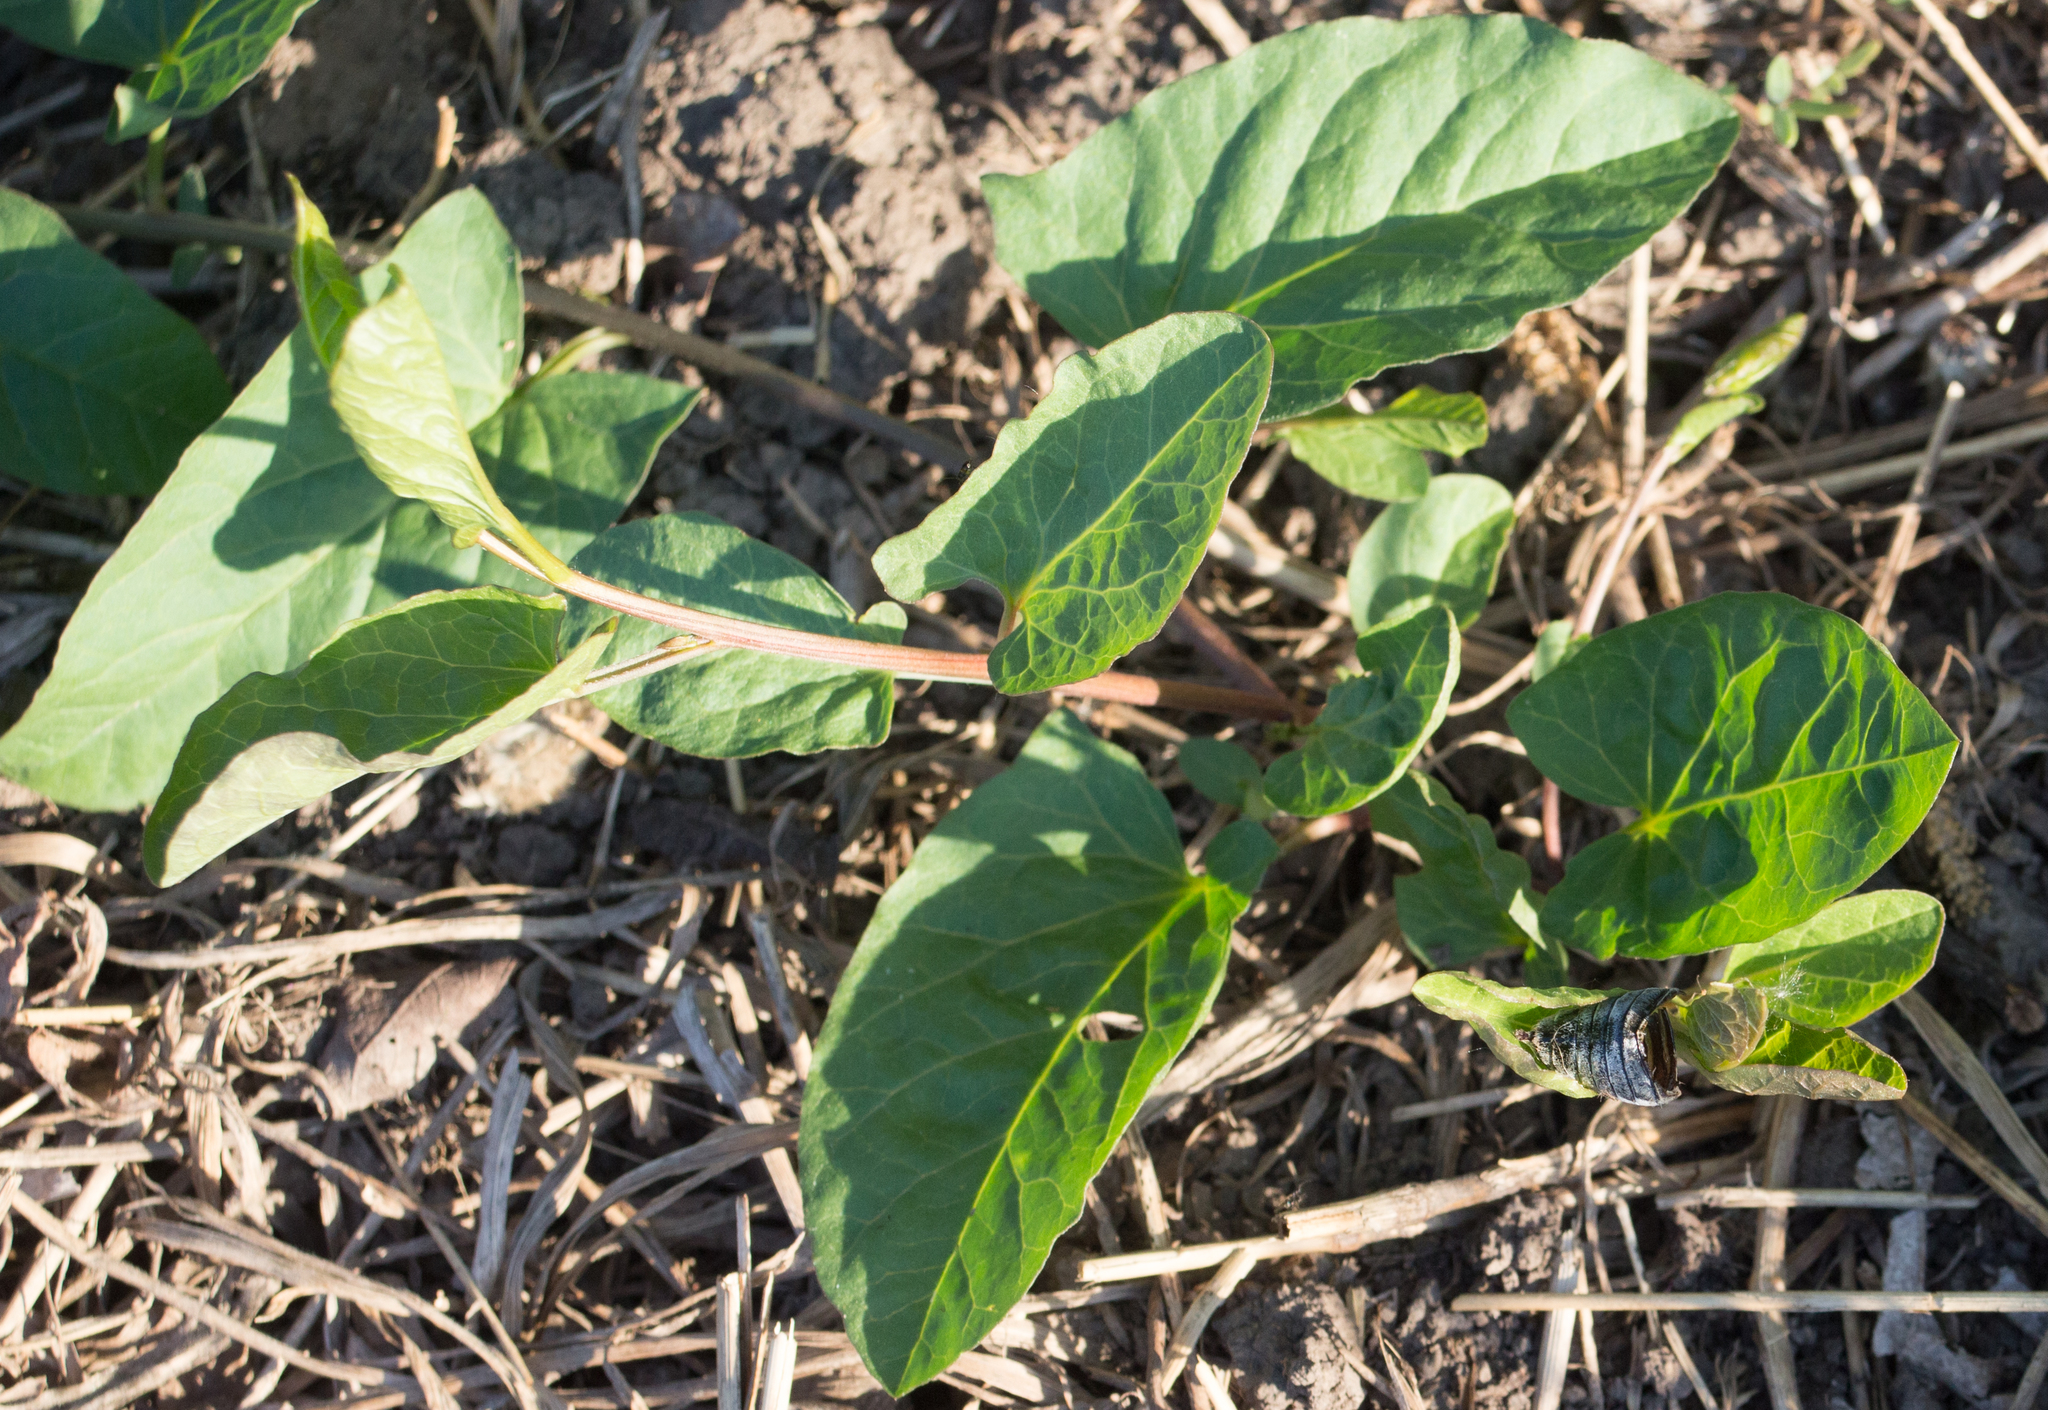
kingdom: Plantae
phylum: Tracheophyta
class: Magnoliopsida
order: Solanales
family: Convolvulaceae
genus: Convolvulus
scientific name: Convolvulus arvensis
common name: Field bindweed
